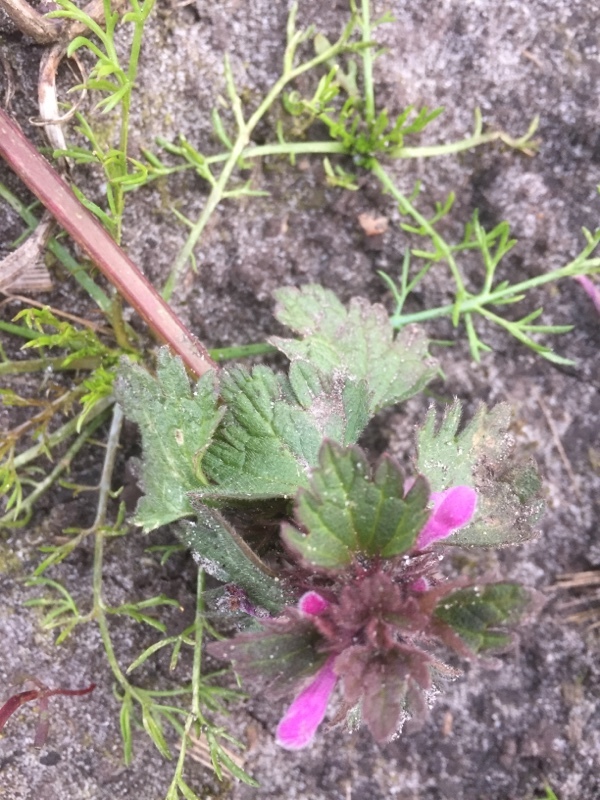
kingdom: Plantae
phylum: Tracheophyta
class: Magnoliopsida
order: Lamiales
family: Lamiaceae
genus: Lamium
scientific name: Lamium hybridum
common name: Cut-leaved dead-nettle
